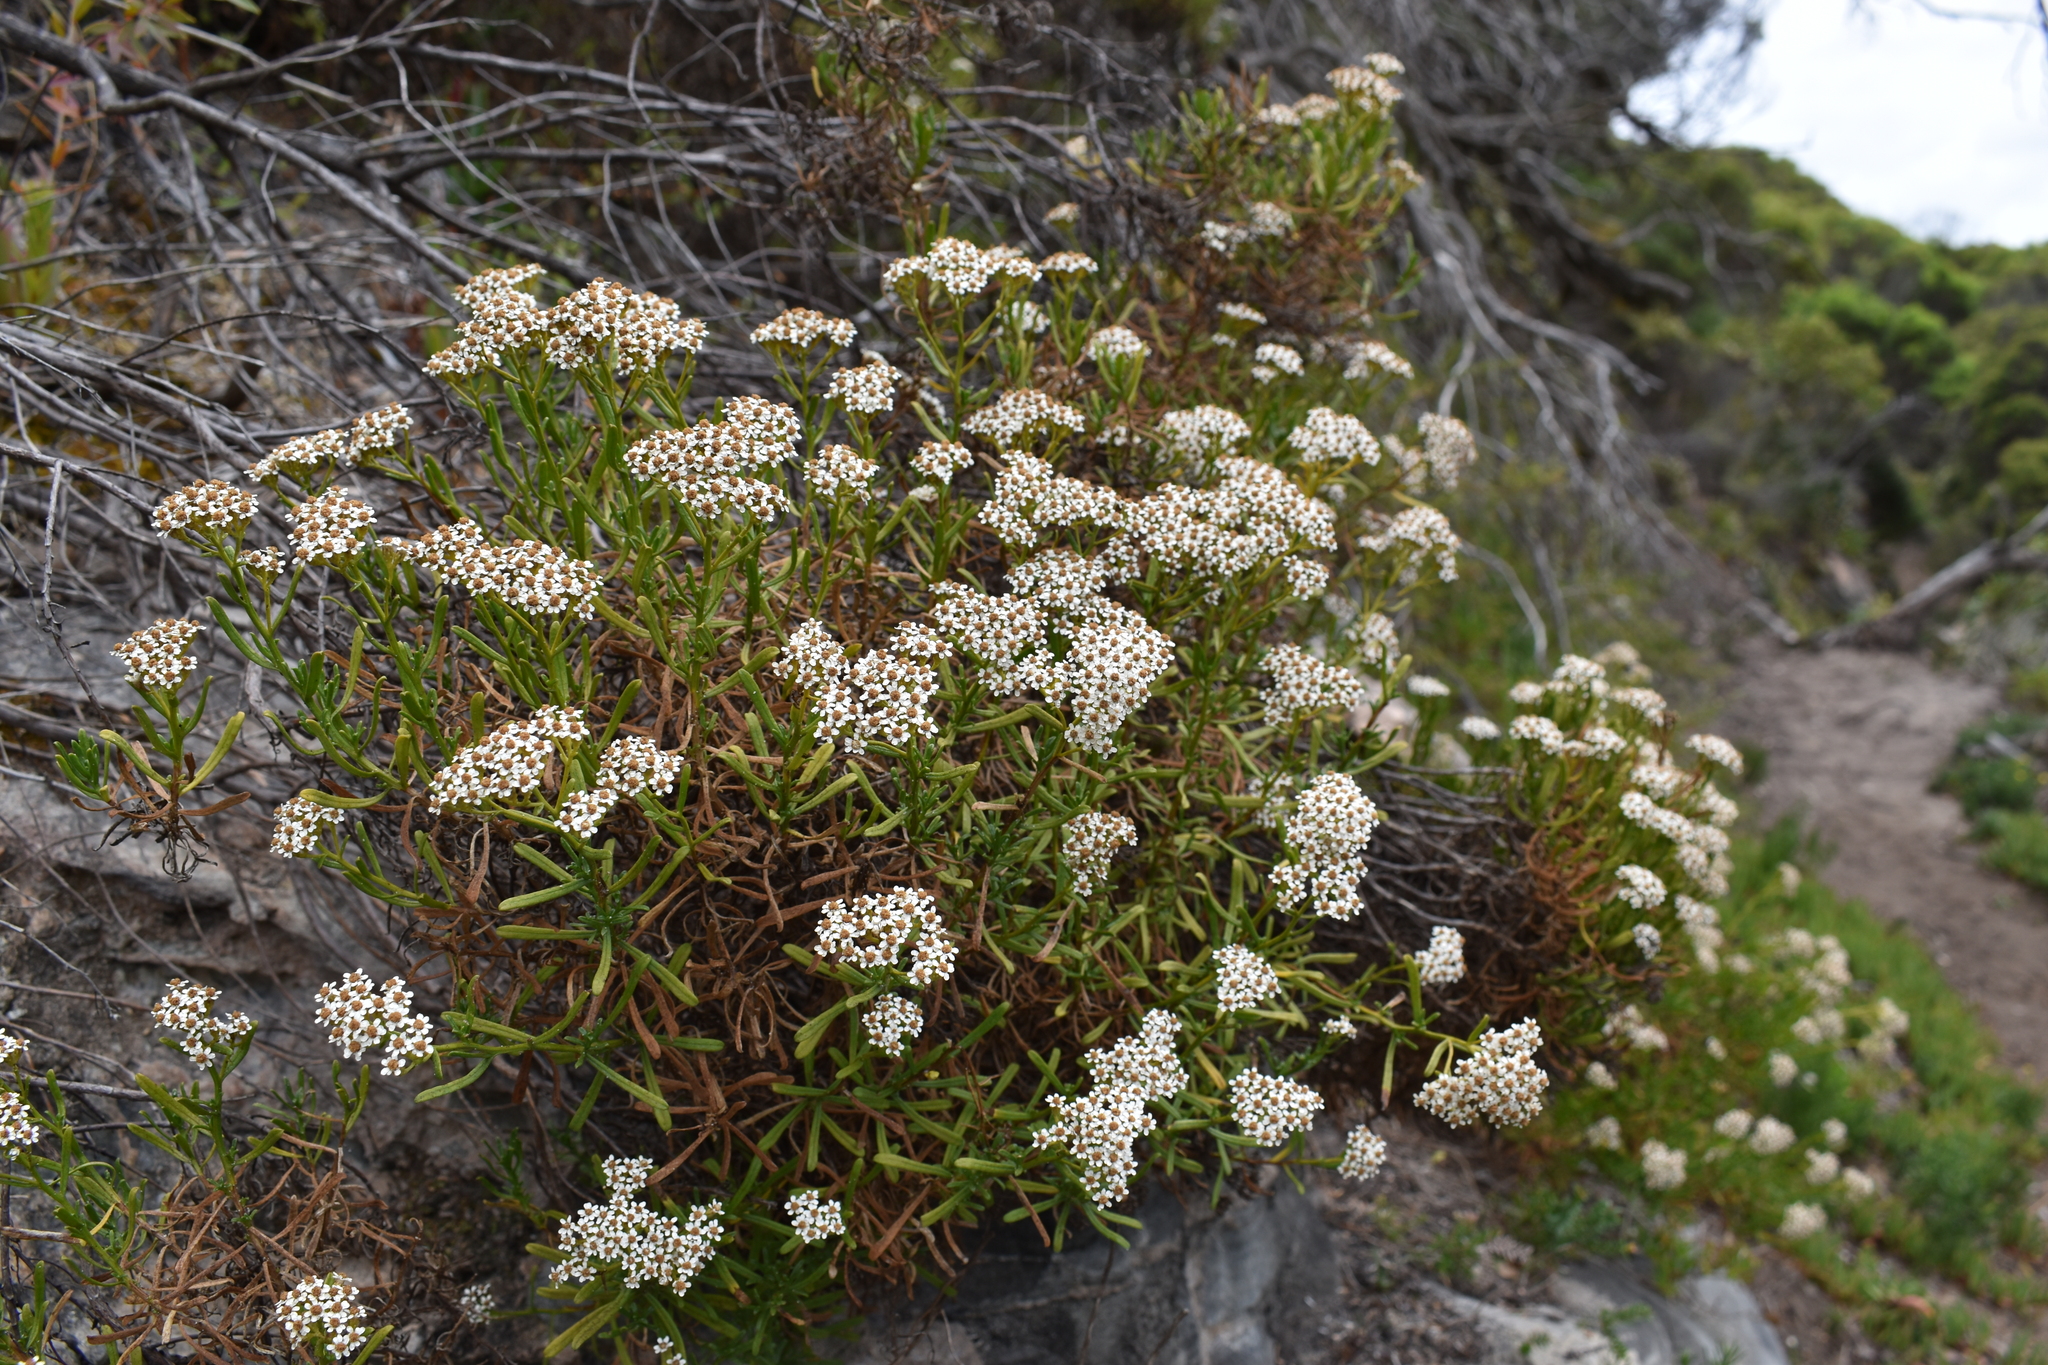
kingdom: Plantae
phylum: Tracheophyta
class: Magnoliopsida
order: Asterales
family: Asteraceae
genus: Ixodia
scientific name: Ixodia achillaeoides
